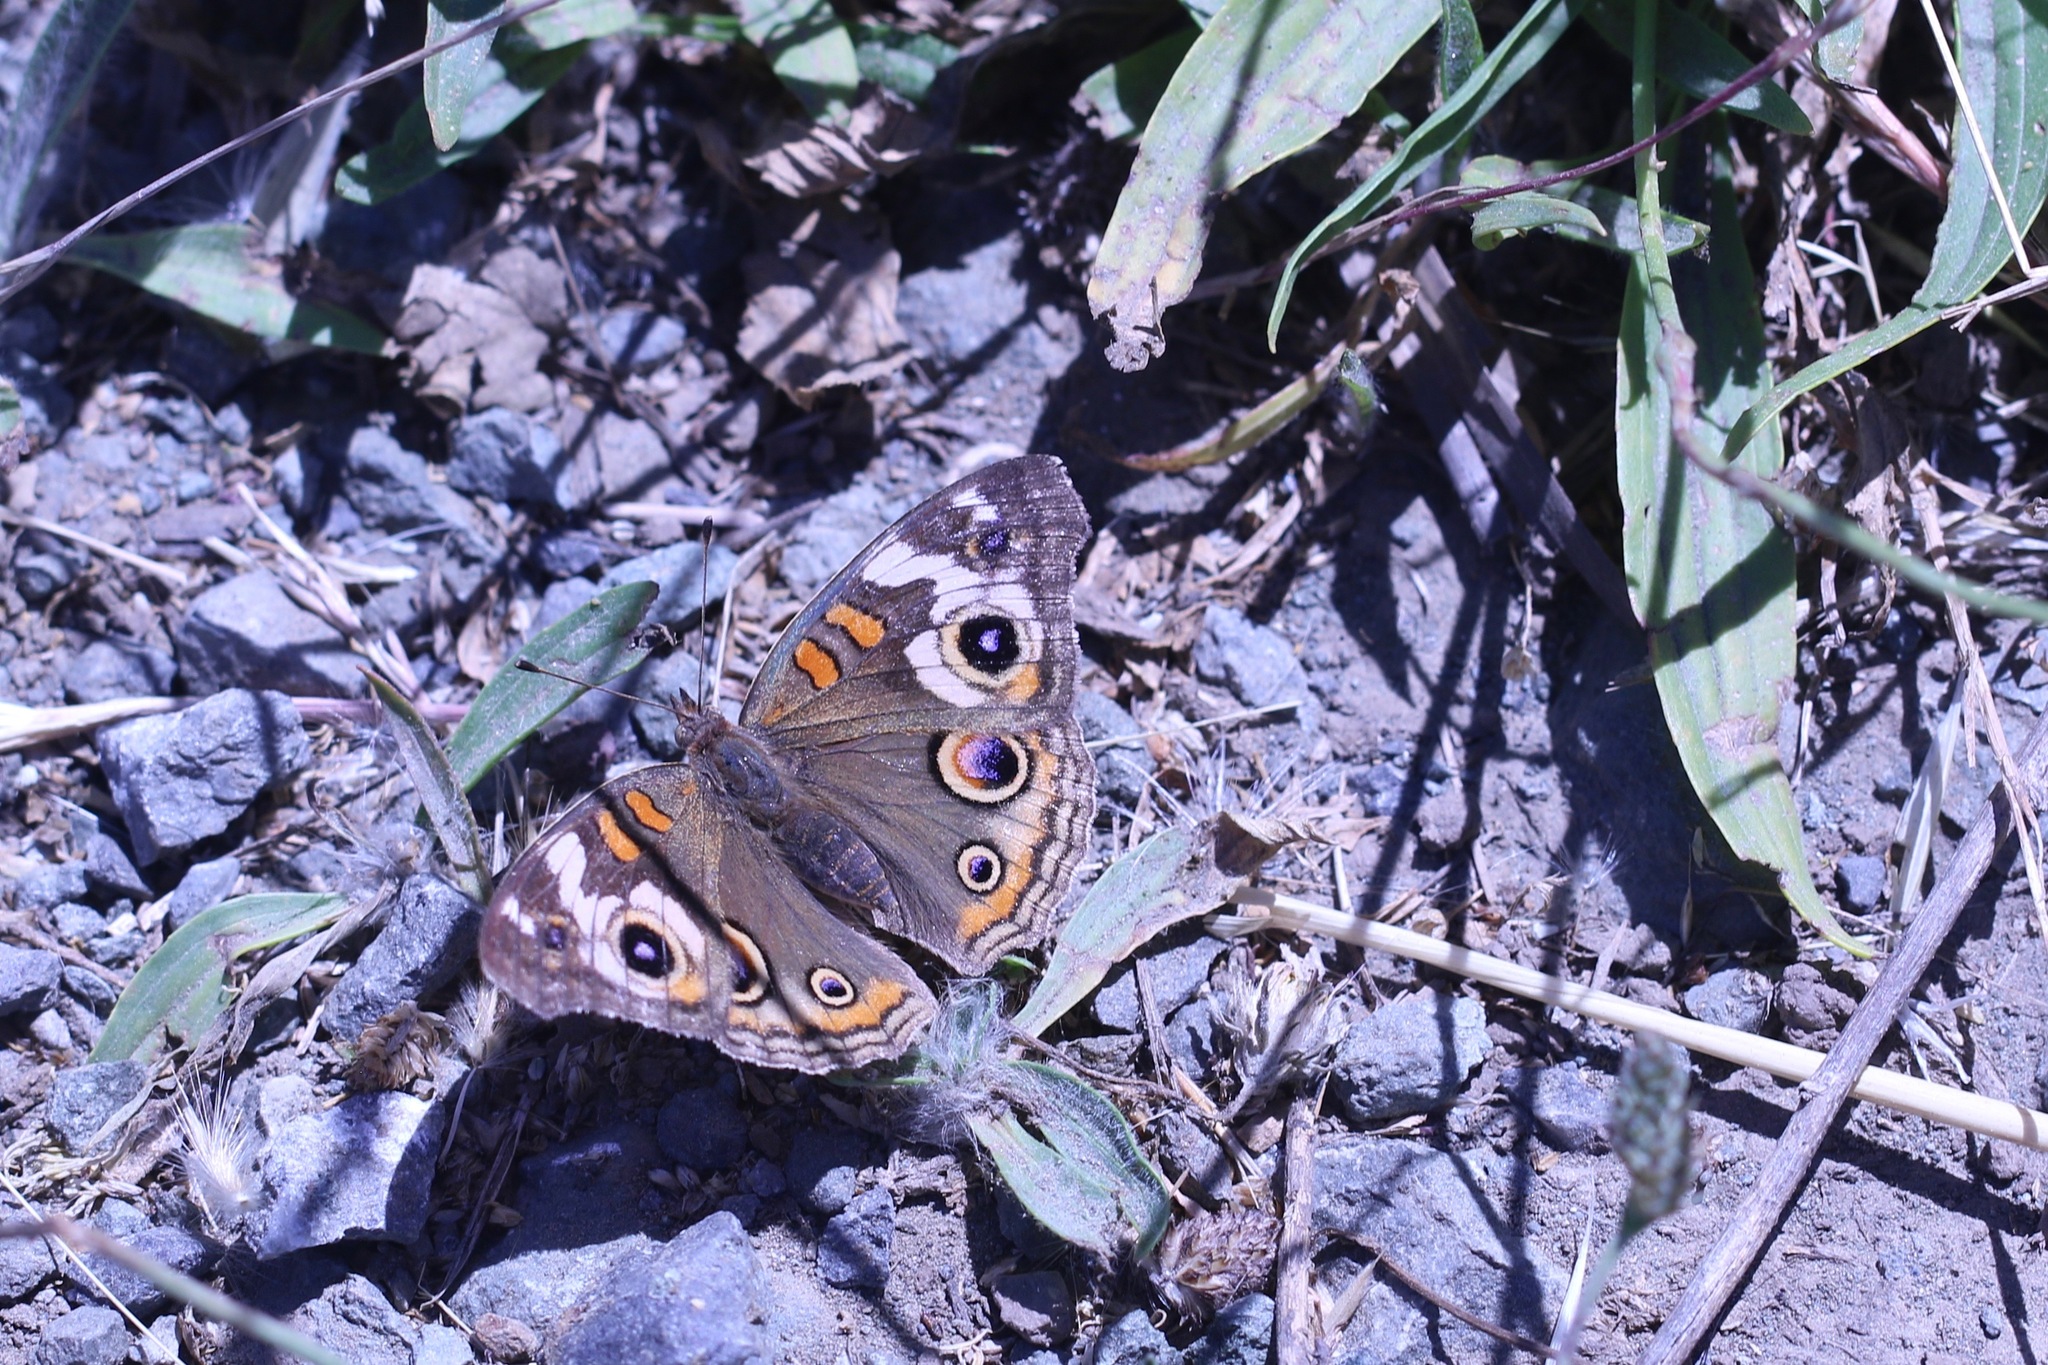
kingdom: Animalia
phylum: Arthropoda
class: Insecta
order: Lepidoptera
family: Nymphalidae
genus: Junonia
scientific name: Junonia grisea
